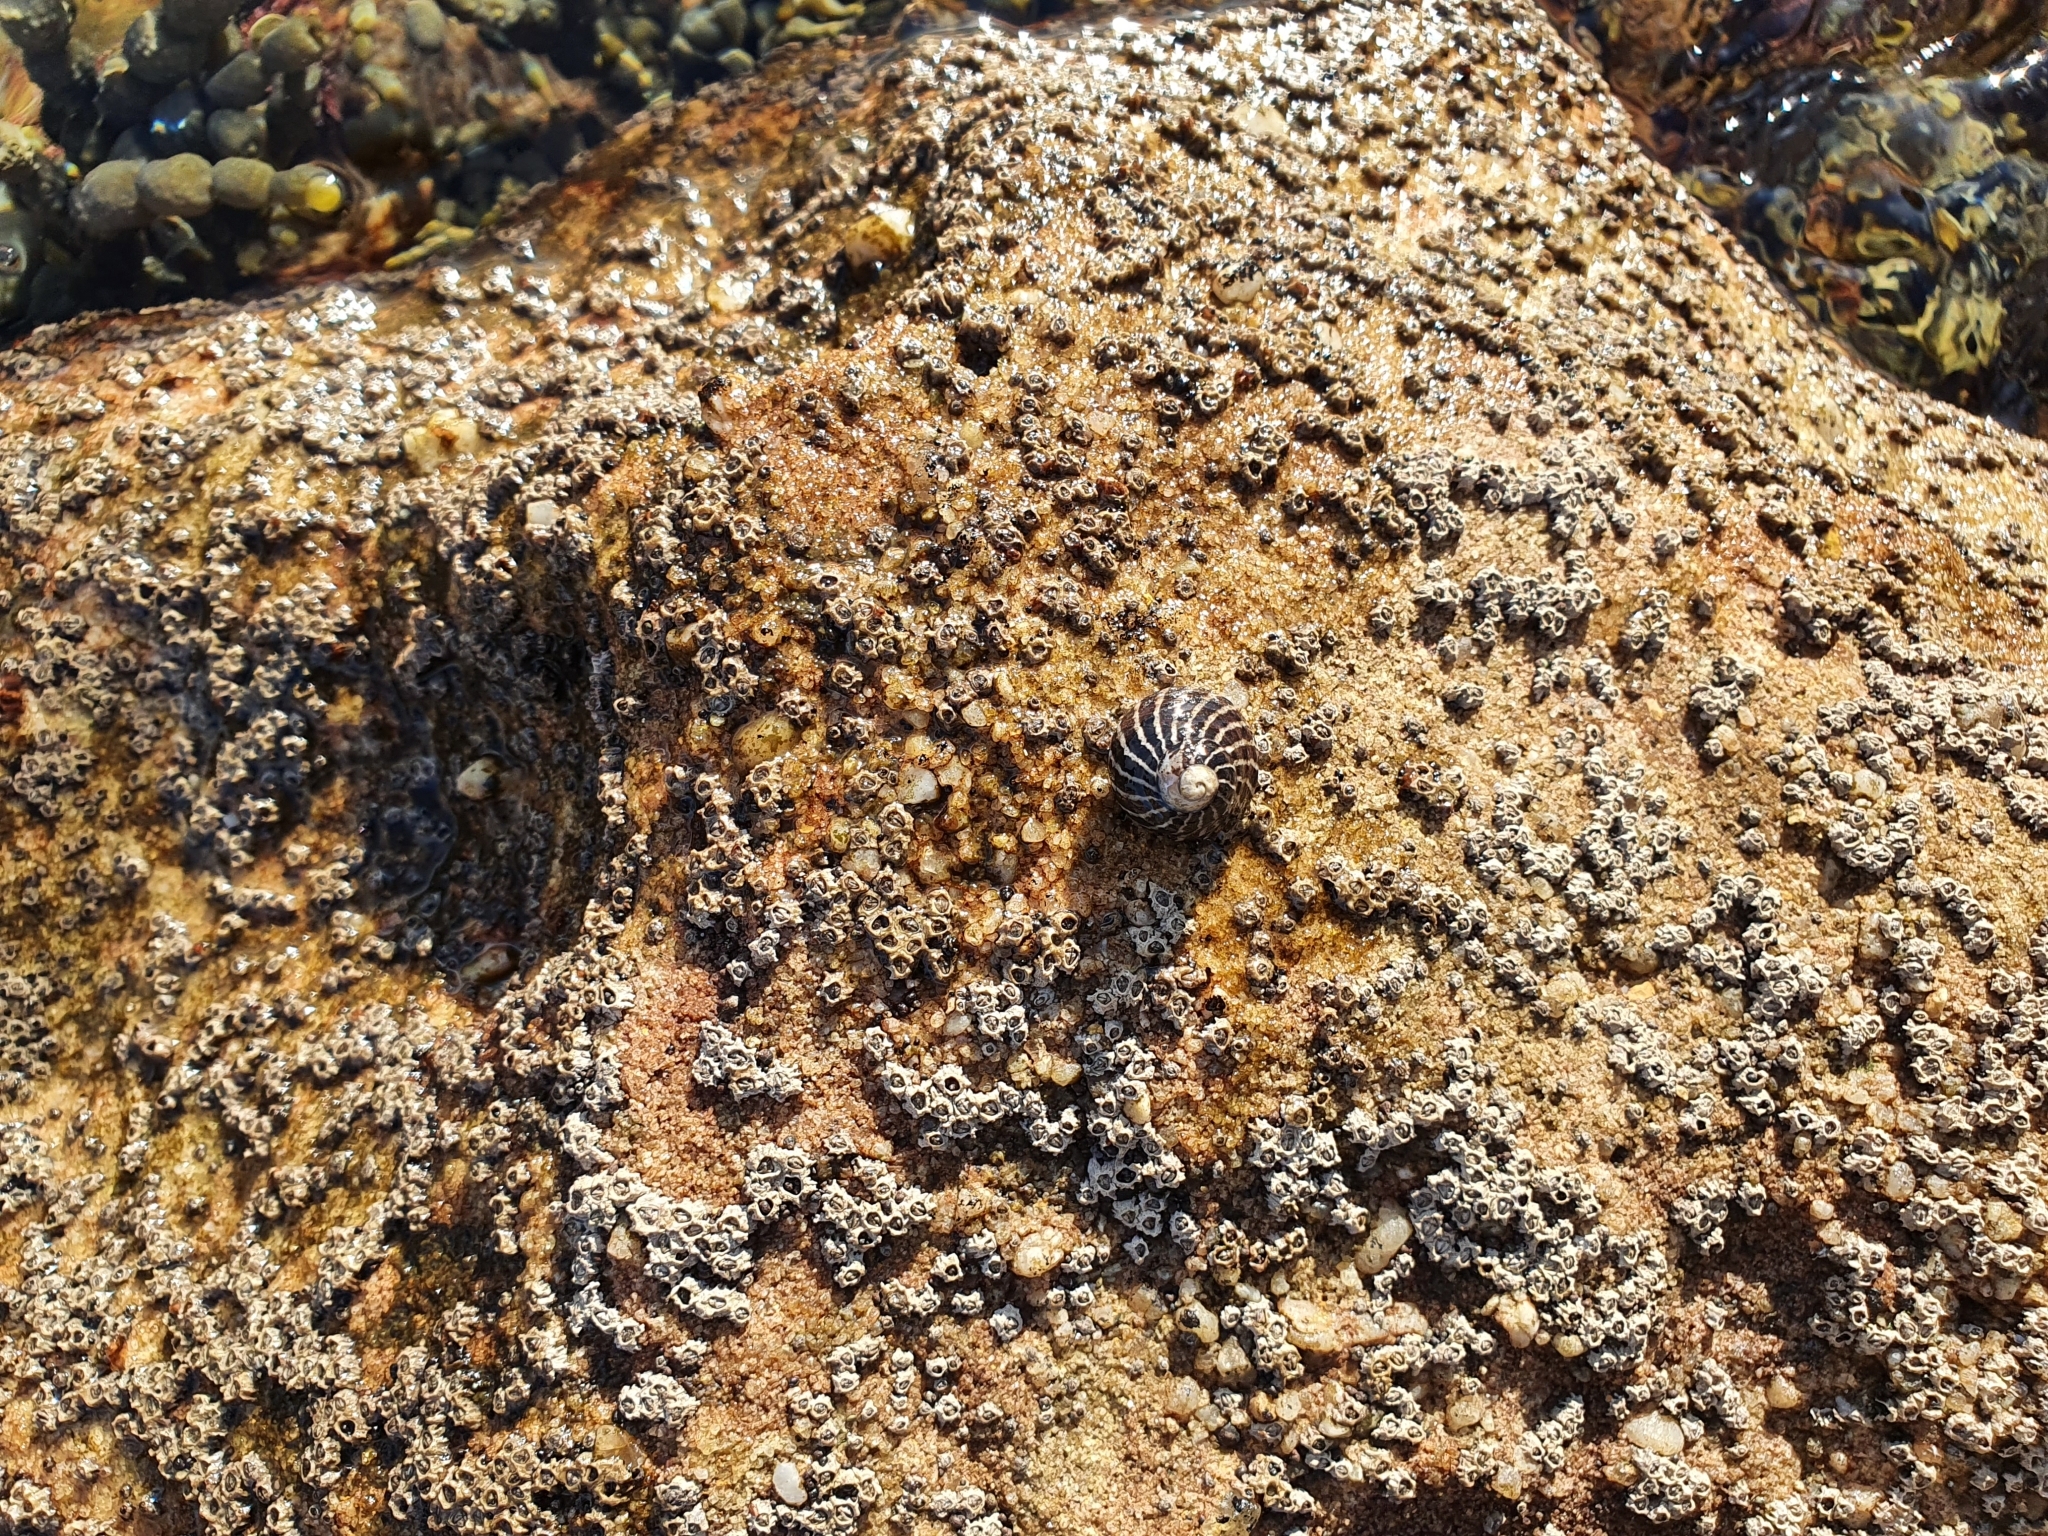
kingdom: Animalia
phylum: Mollusca
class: Gastropoda
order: Trochida
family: Trochidae
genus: Austrocochlea
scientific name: Austrocochlea porcata
